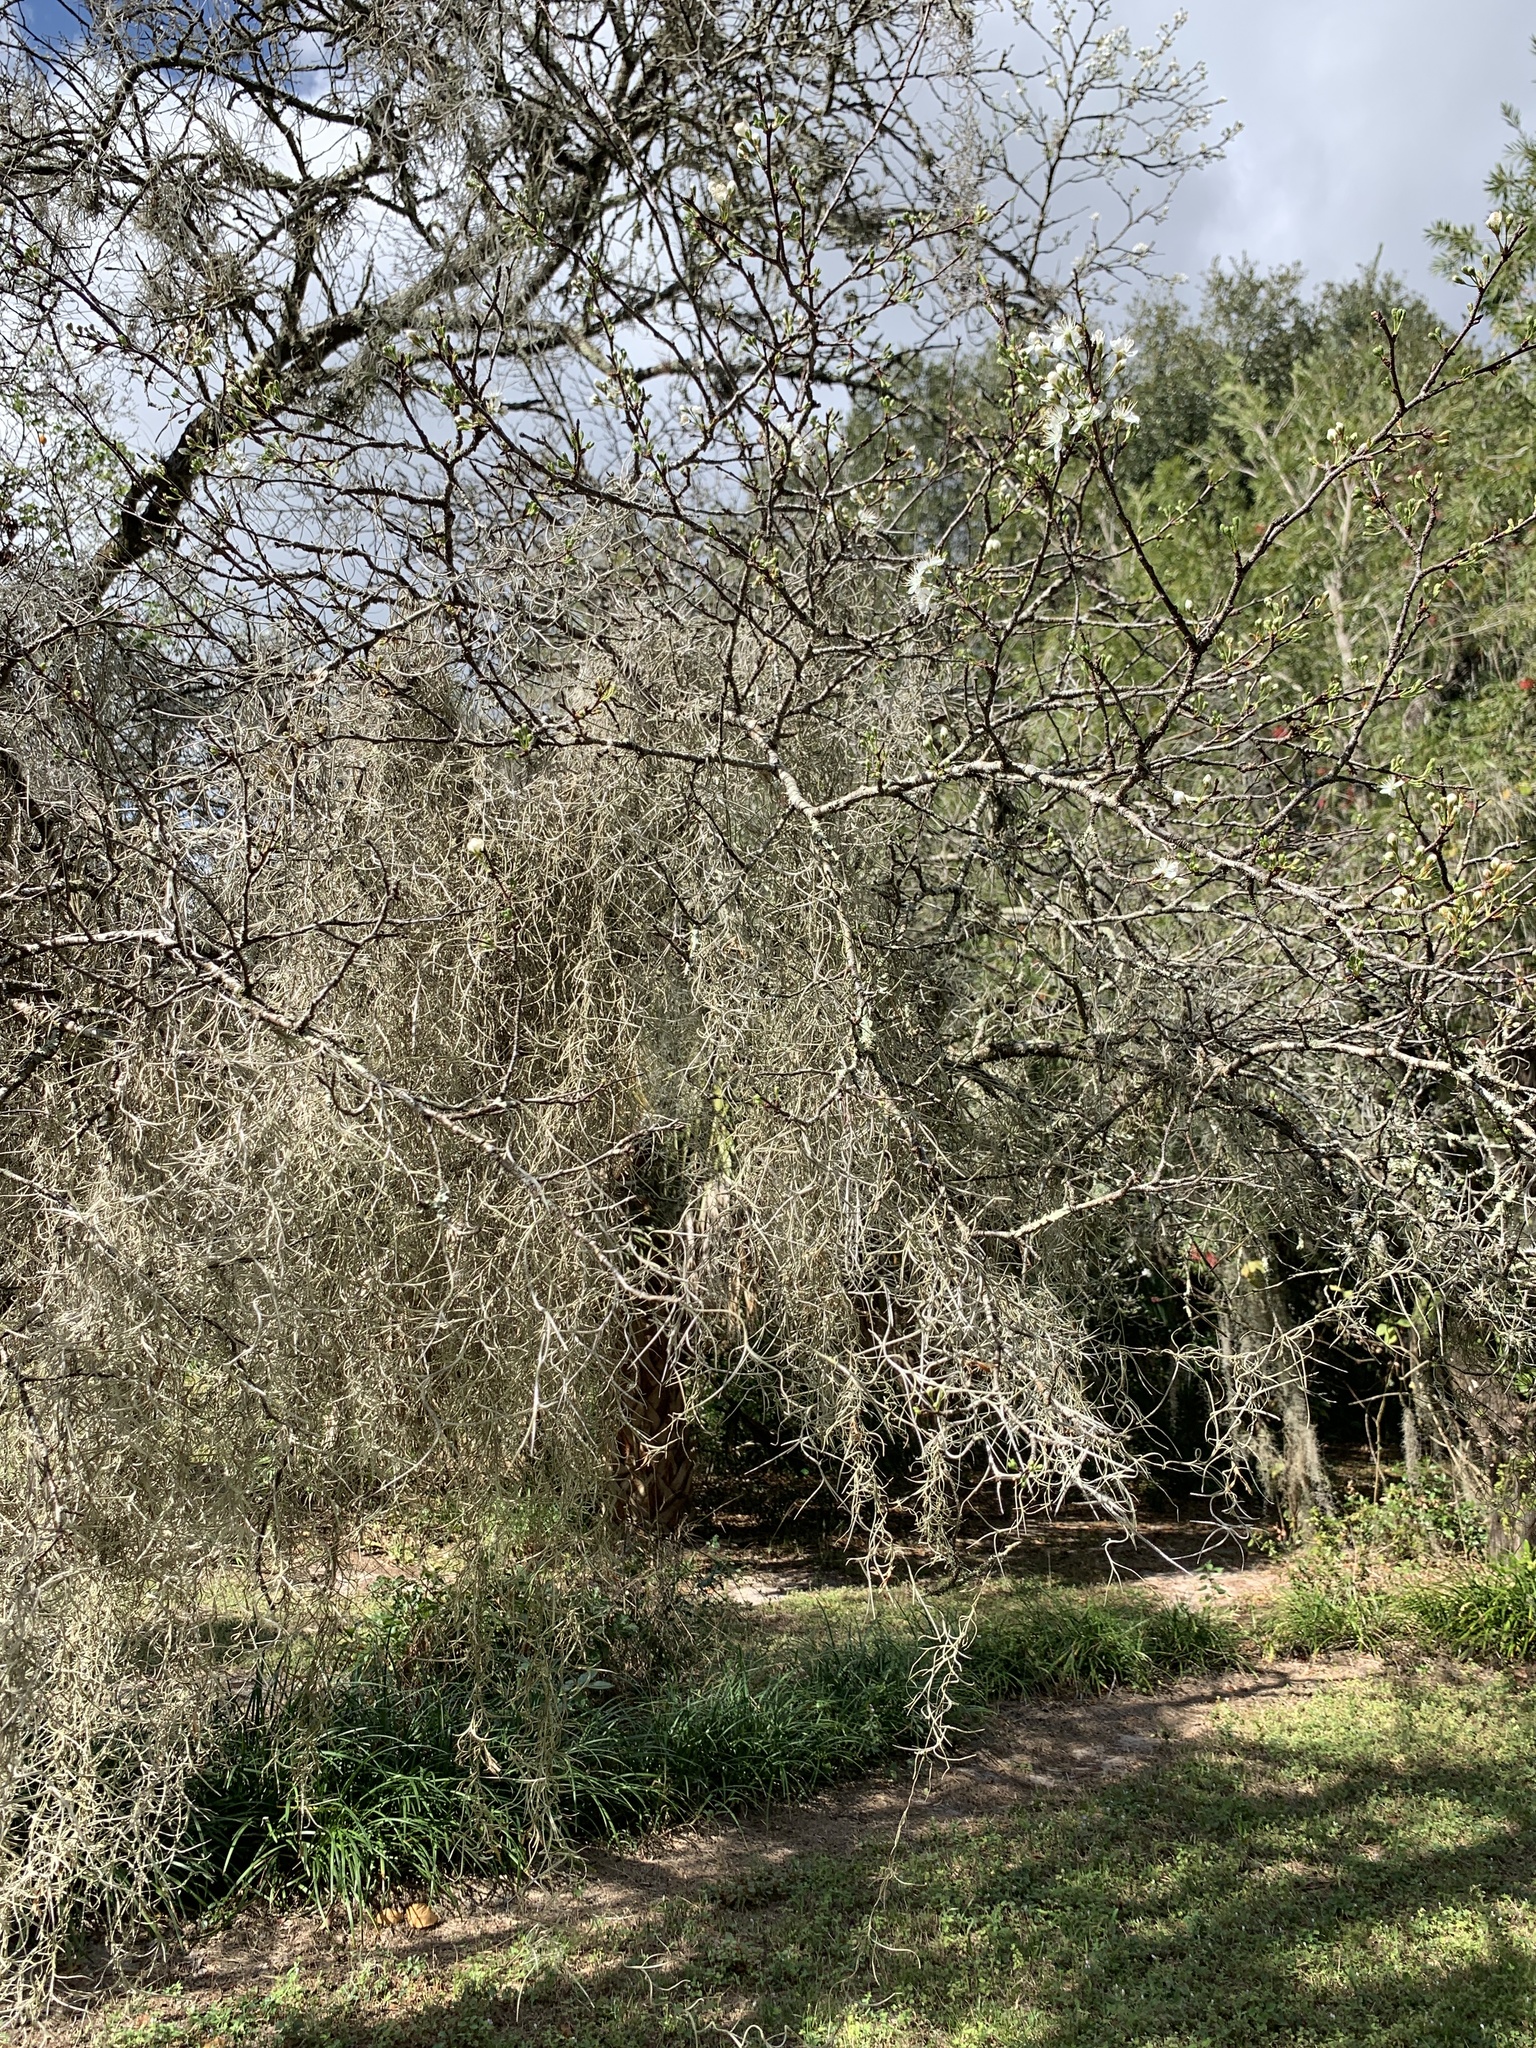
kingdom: Plantae
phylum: Tracheophyta
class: Liliopsida
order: Poales
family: Bromeliaceae
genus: Tillandsia
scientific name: Tillandsia usneoides
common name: Spanish moss
